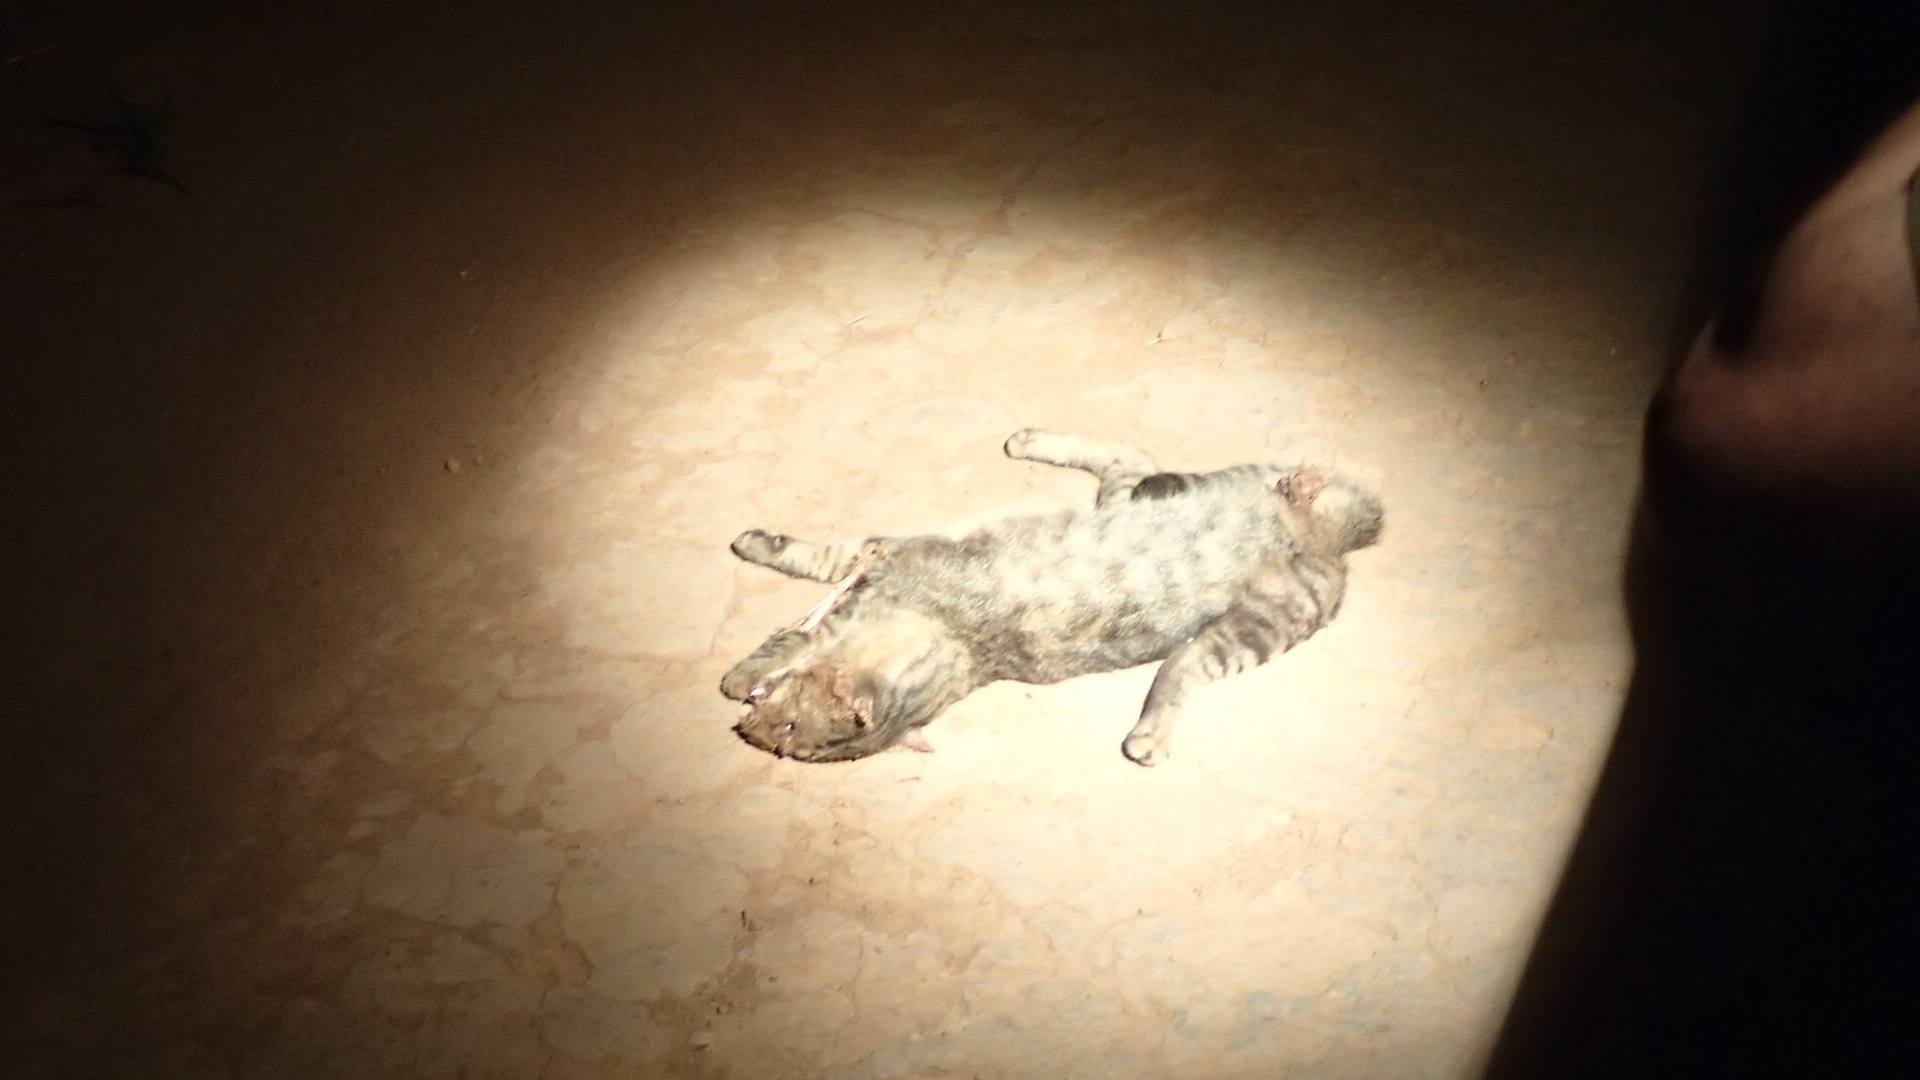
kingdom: Animalia
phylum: Chordata
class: Mammalia
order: Carnivora
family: Felidae
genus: Leopardus
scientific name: Leopardus geoffroyi
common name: Geoffroy's cat
